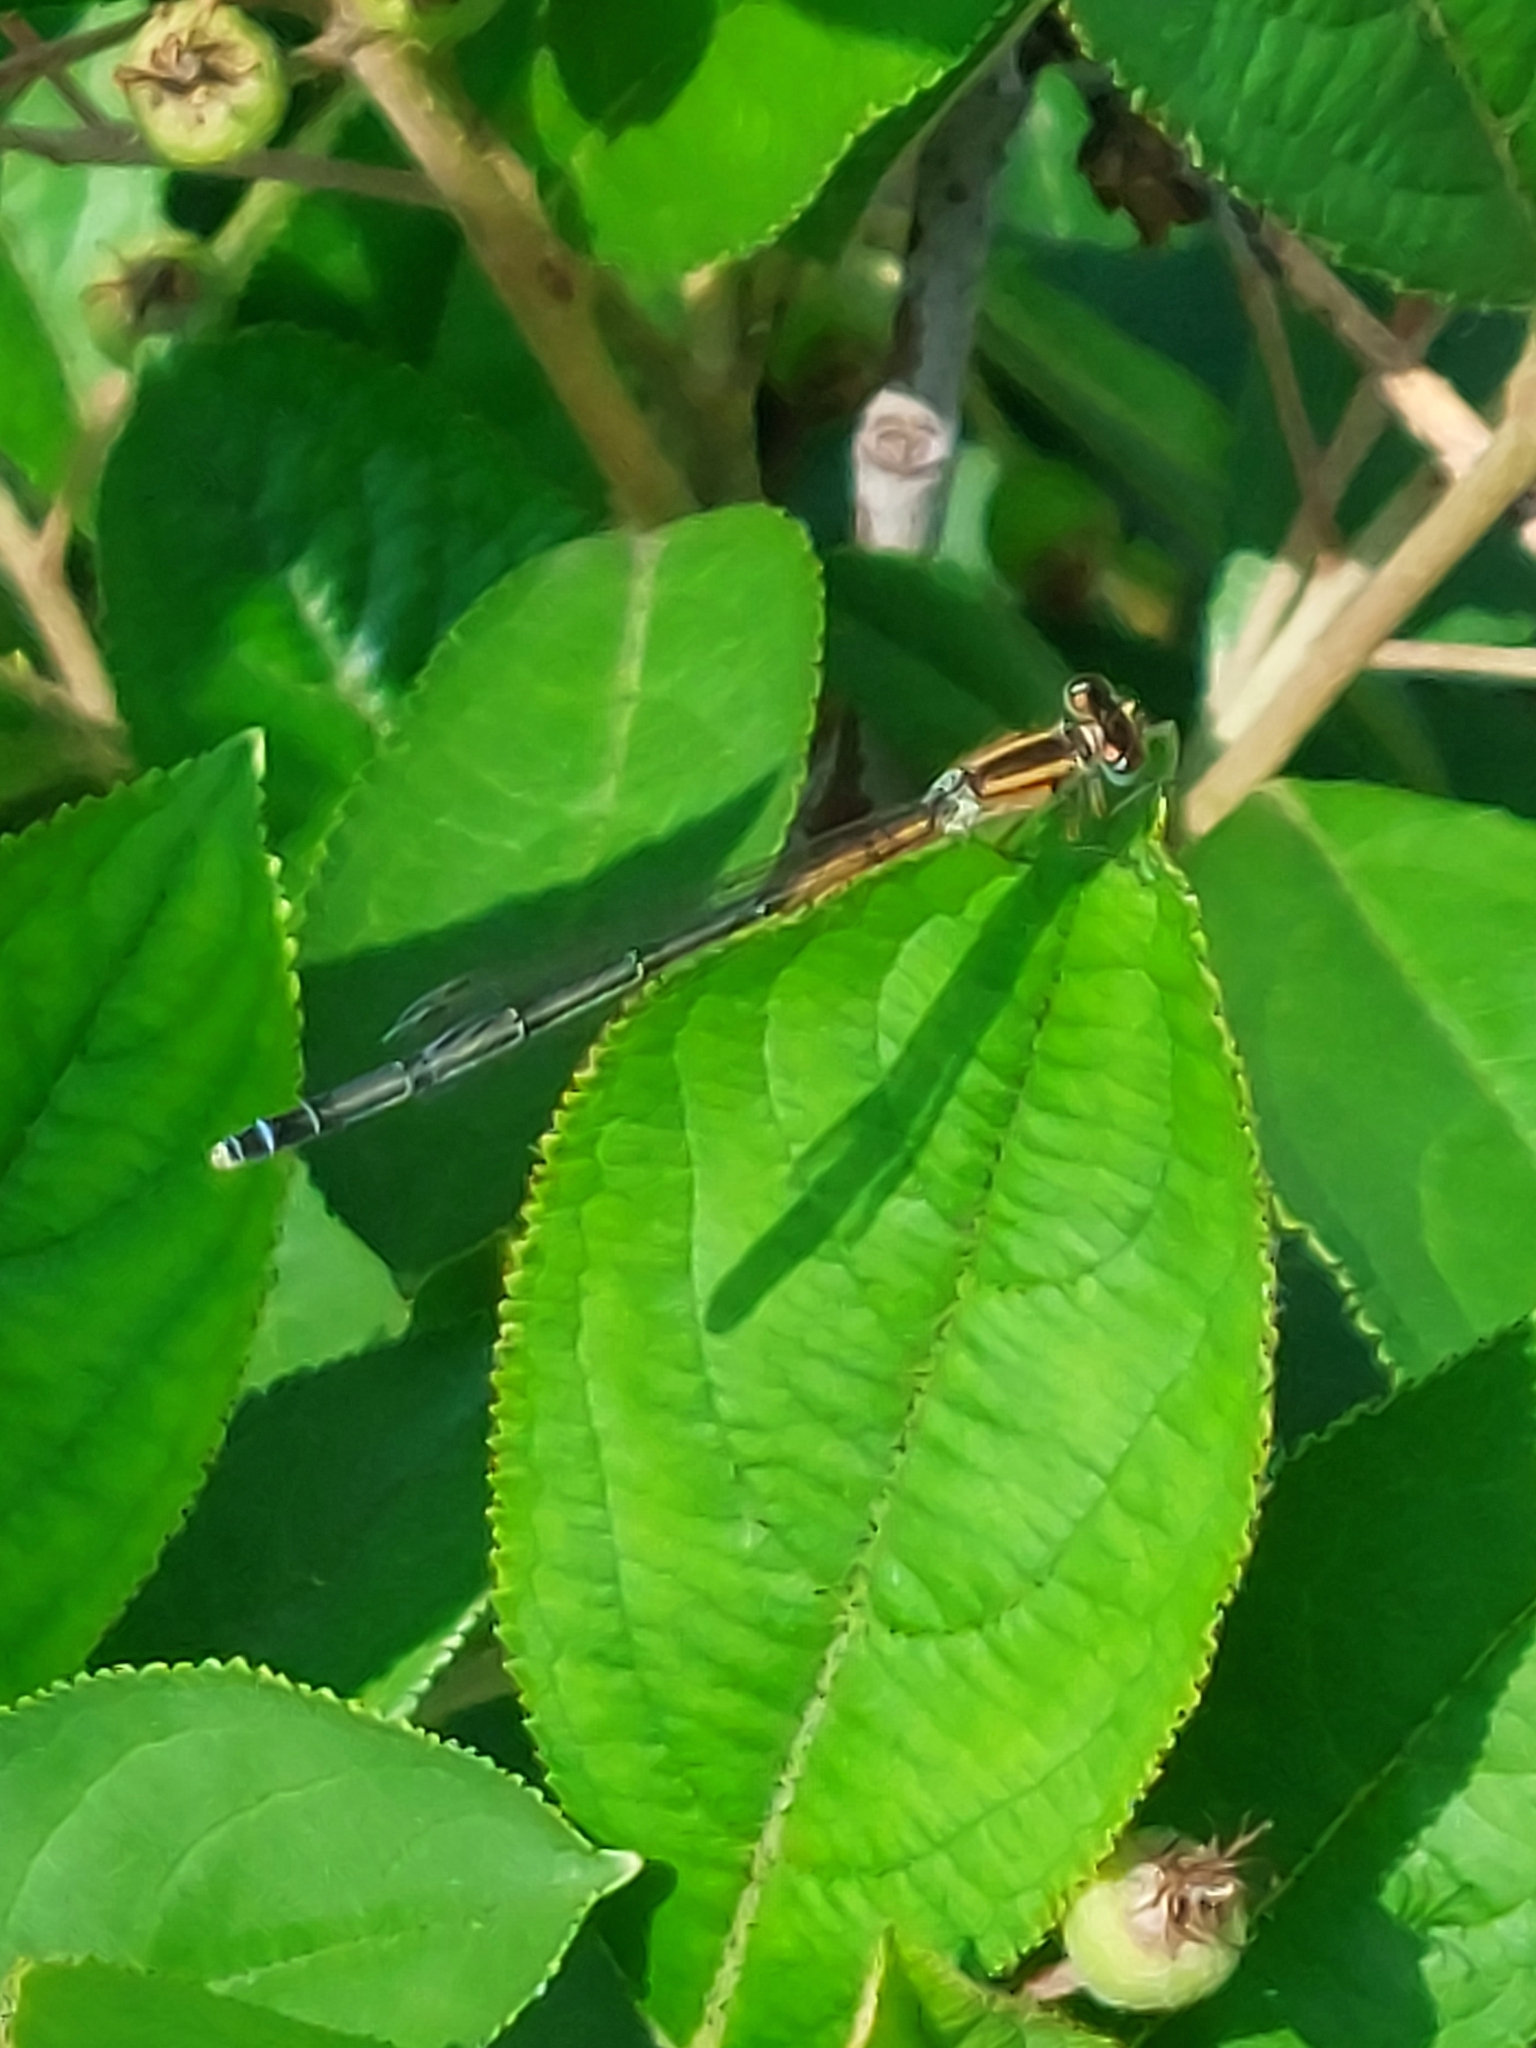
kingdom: Animalia
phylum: Arthropoda
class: Insecta
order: Odonata
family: Coenagrionidae
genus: Ischnura
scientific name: Ischnura verticalis
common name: Eastern forktail
